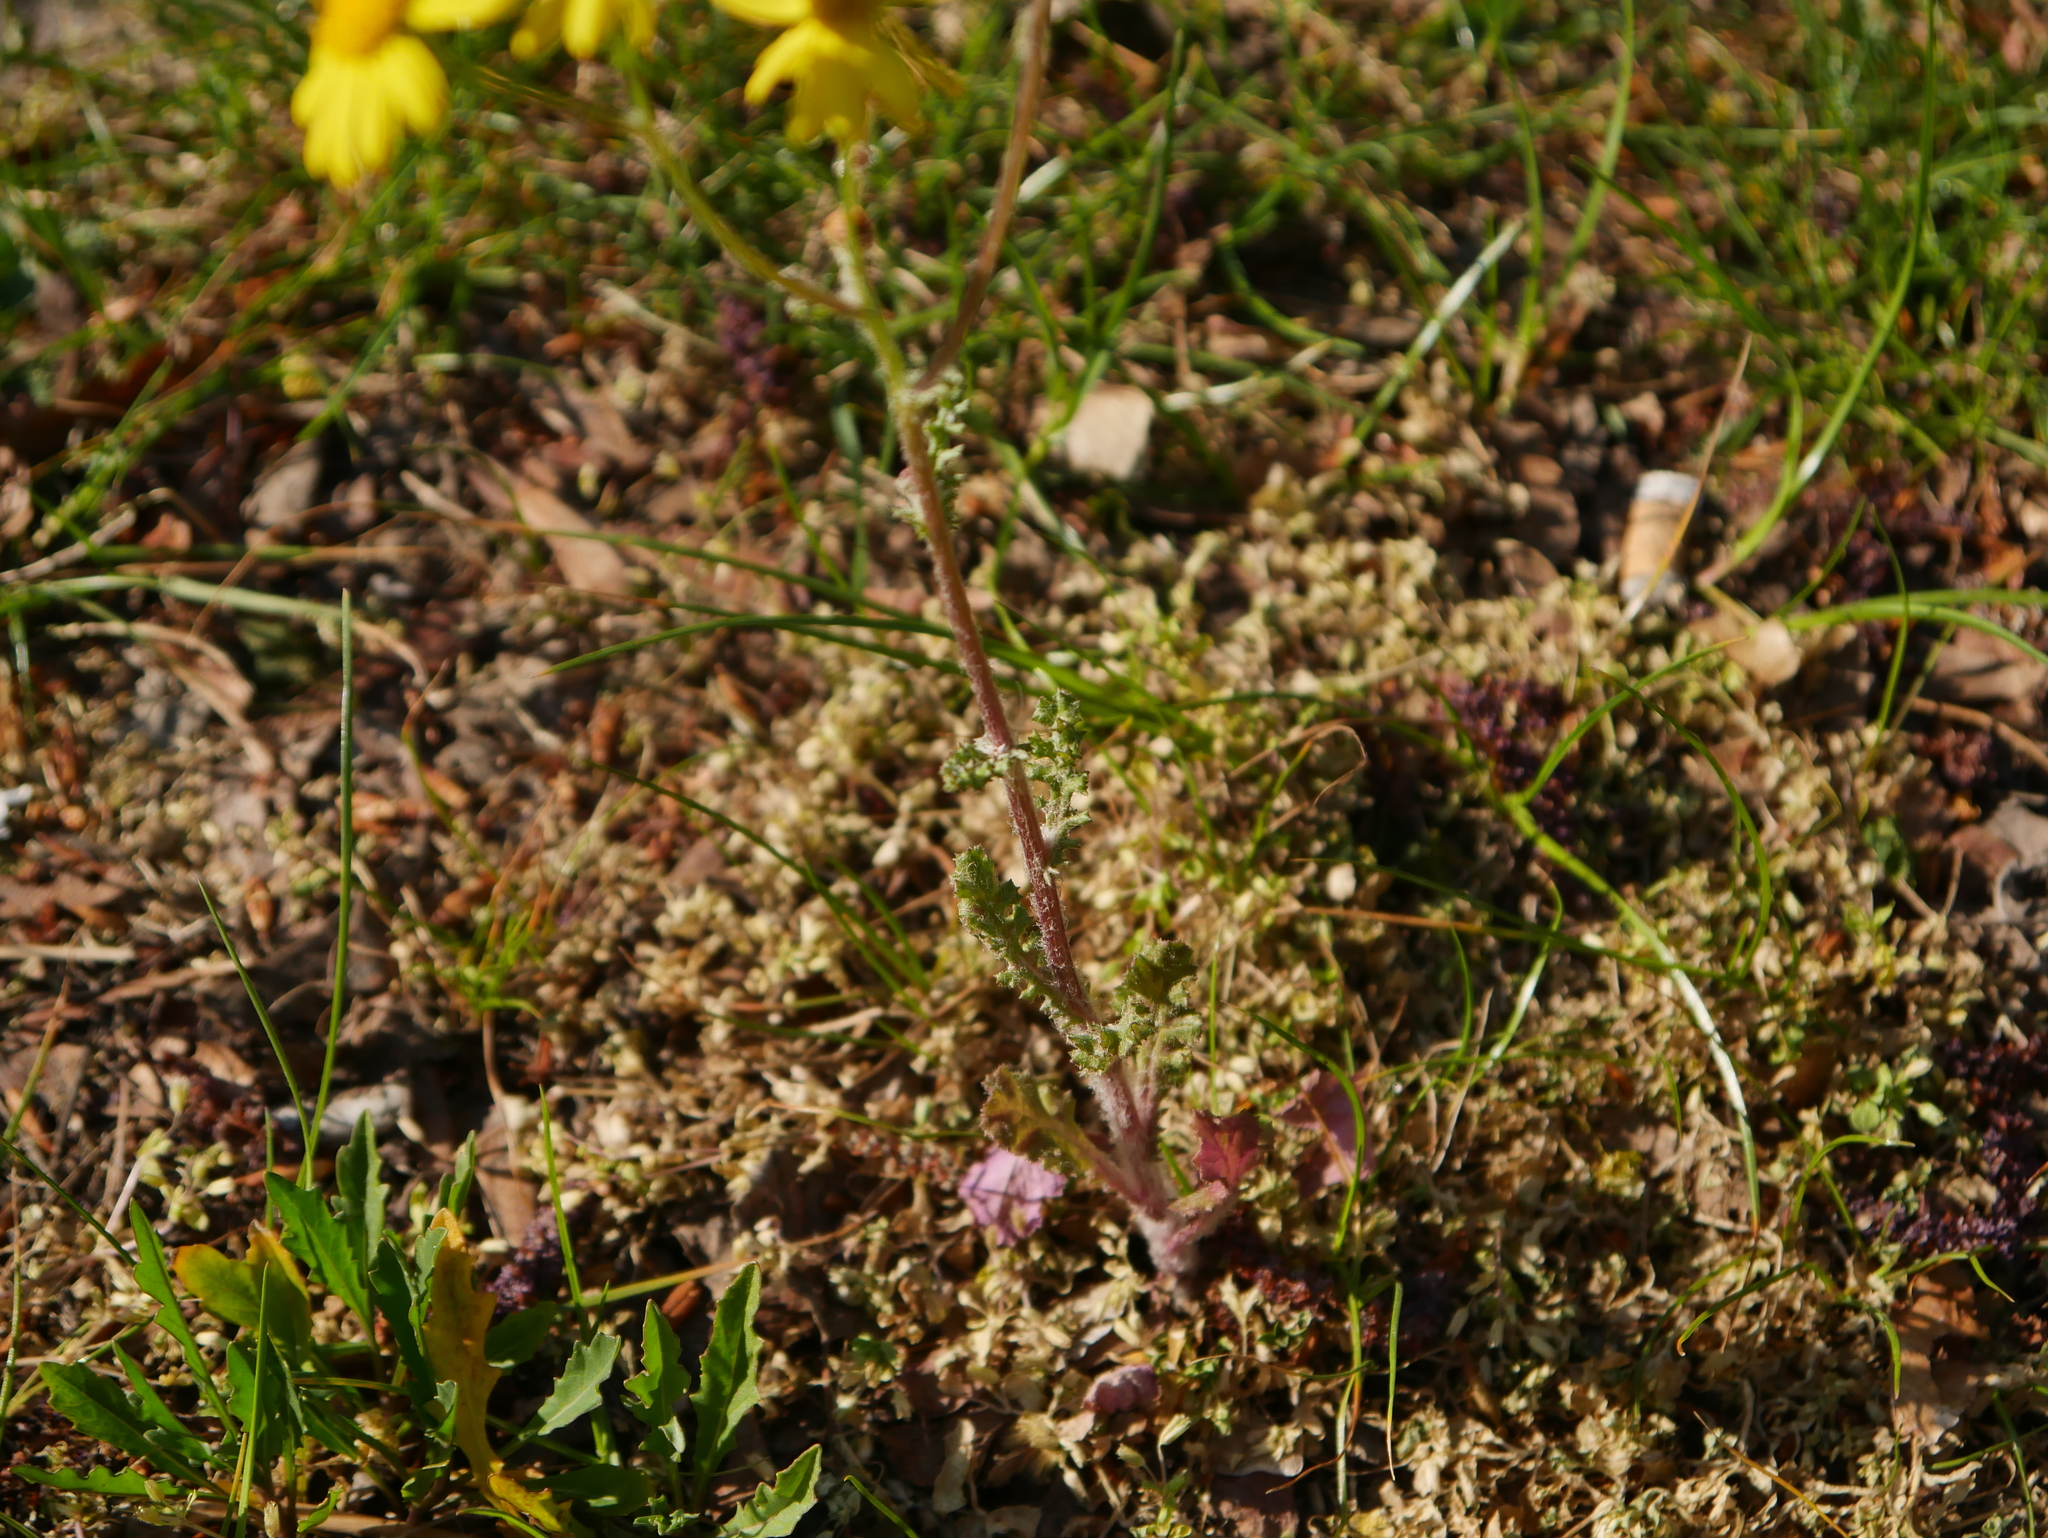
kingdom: Plantae
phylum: Tracheophyta
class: Magnoliopsida
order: Asterales
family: Asteraceae
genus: Senecio
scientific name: Senecio vernalis
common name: Eastern groundsel
